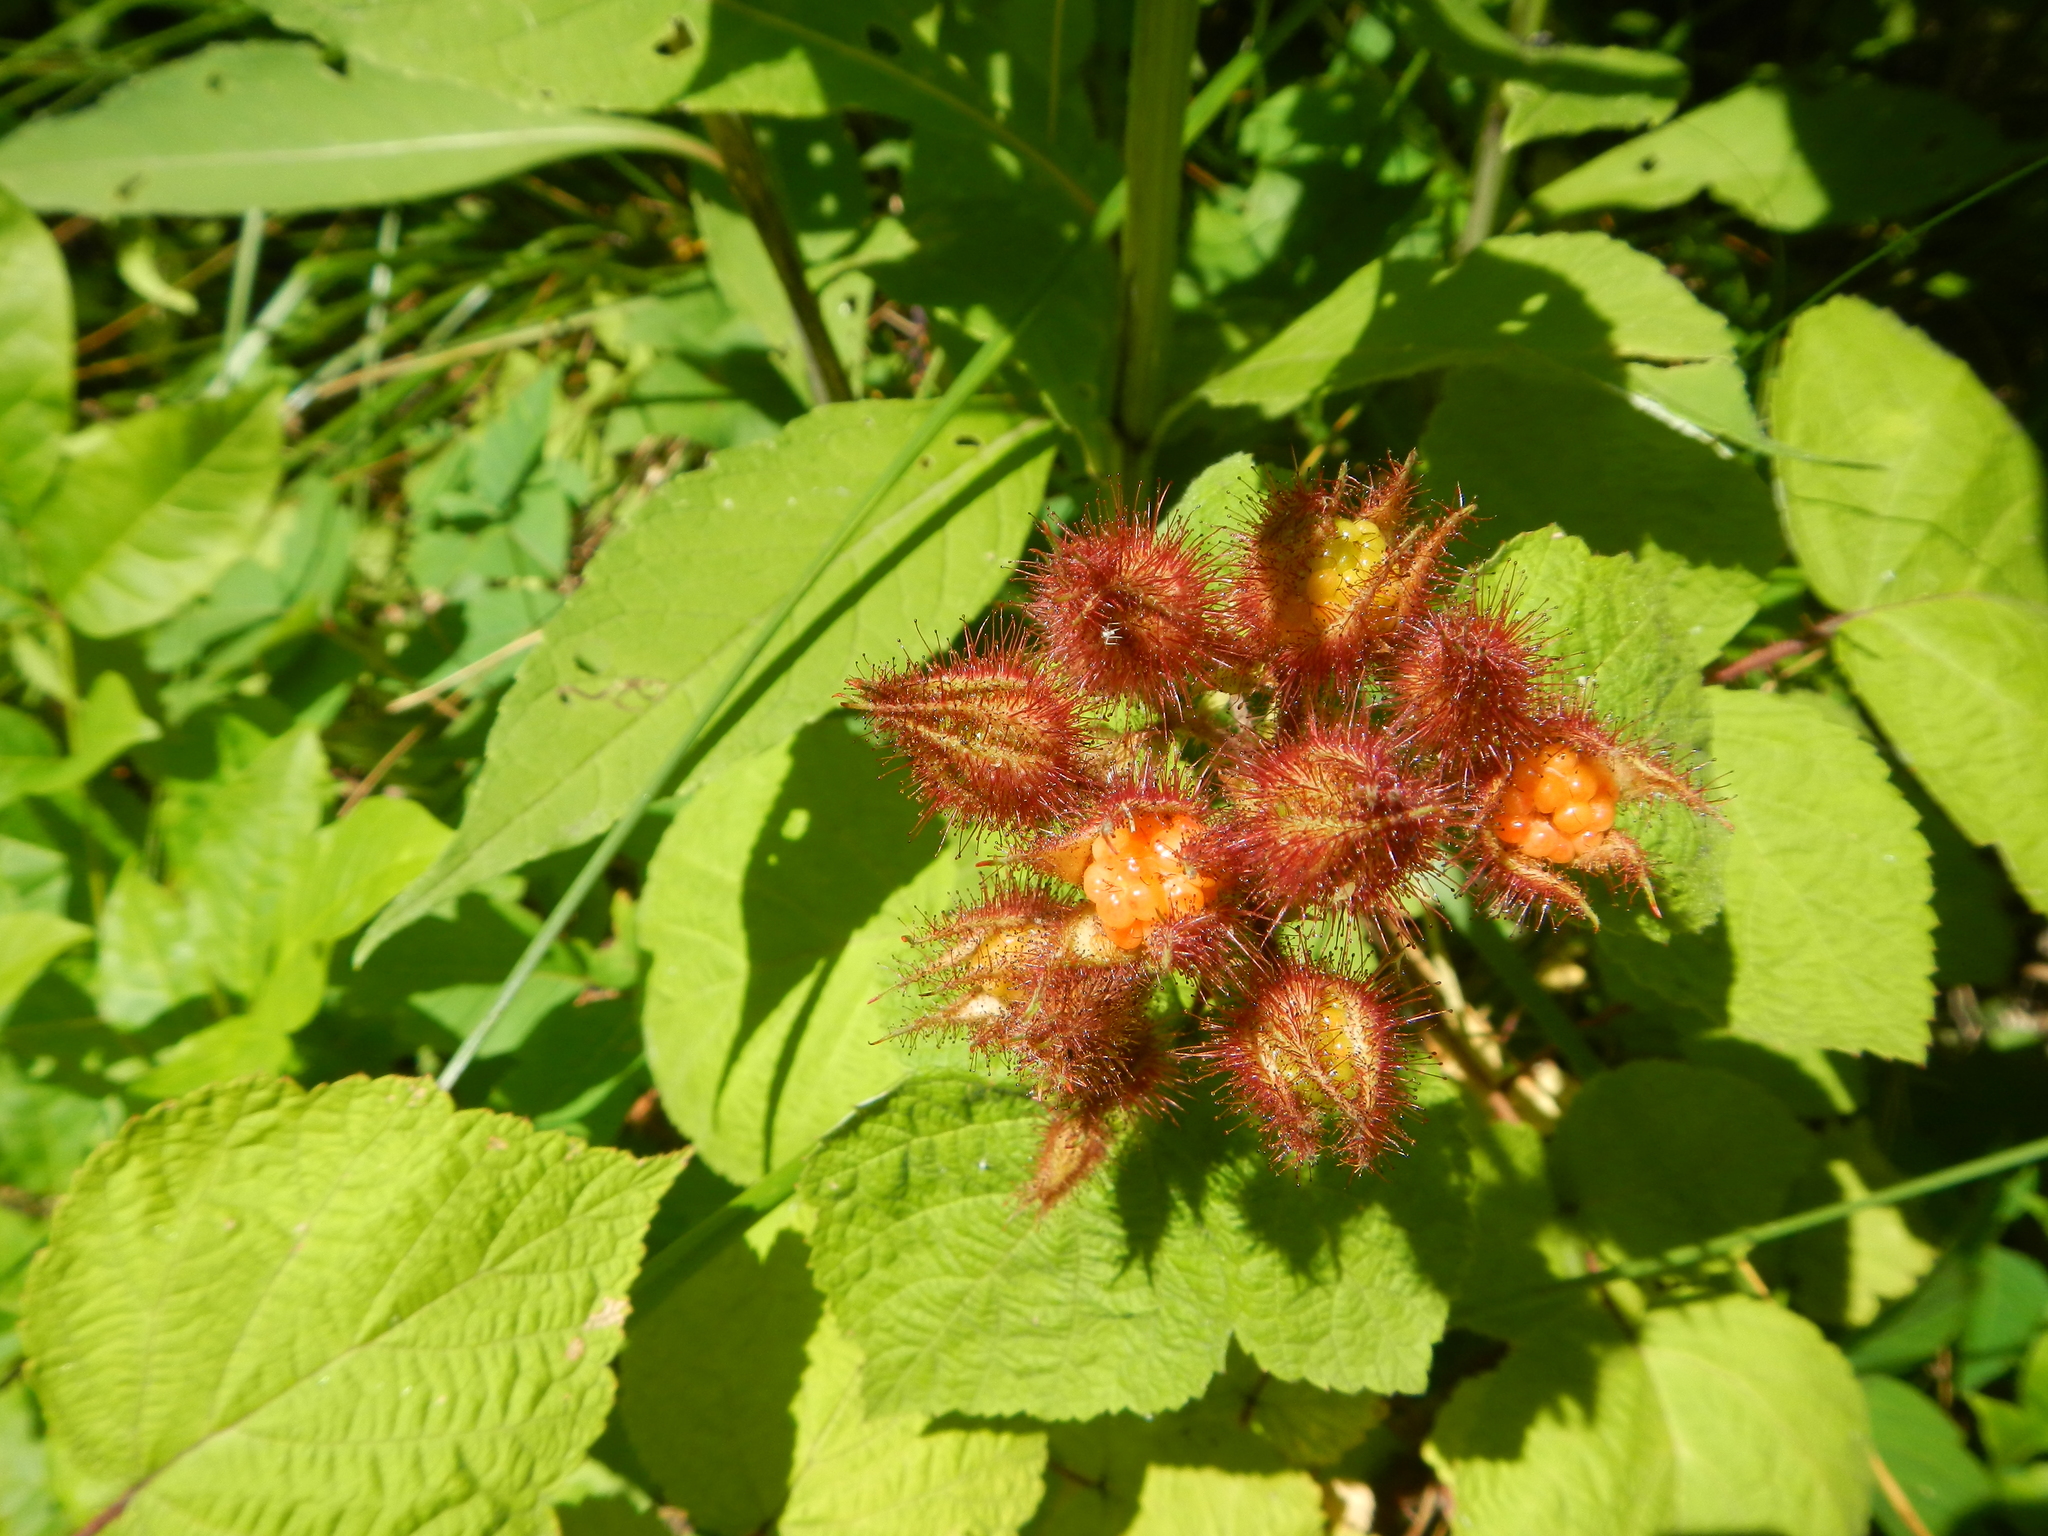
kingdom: Plantae
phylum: Tracheophyta
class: Magnoliopsida
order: Rosales
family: Rosaceae
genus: Rubus
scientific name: Rubus phoenicolasius
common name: Japanese wineberry
